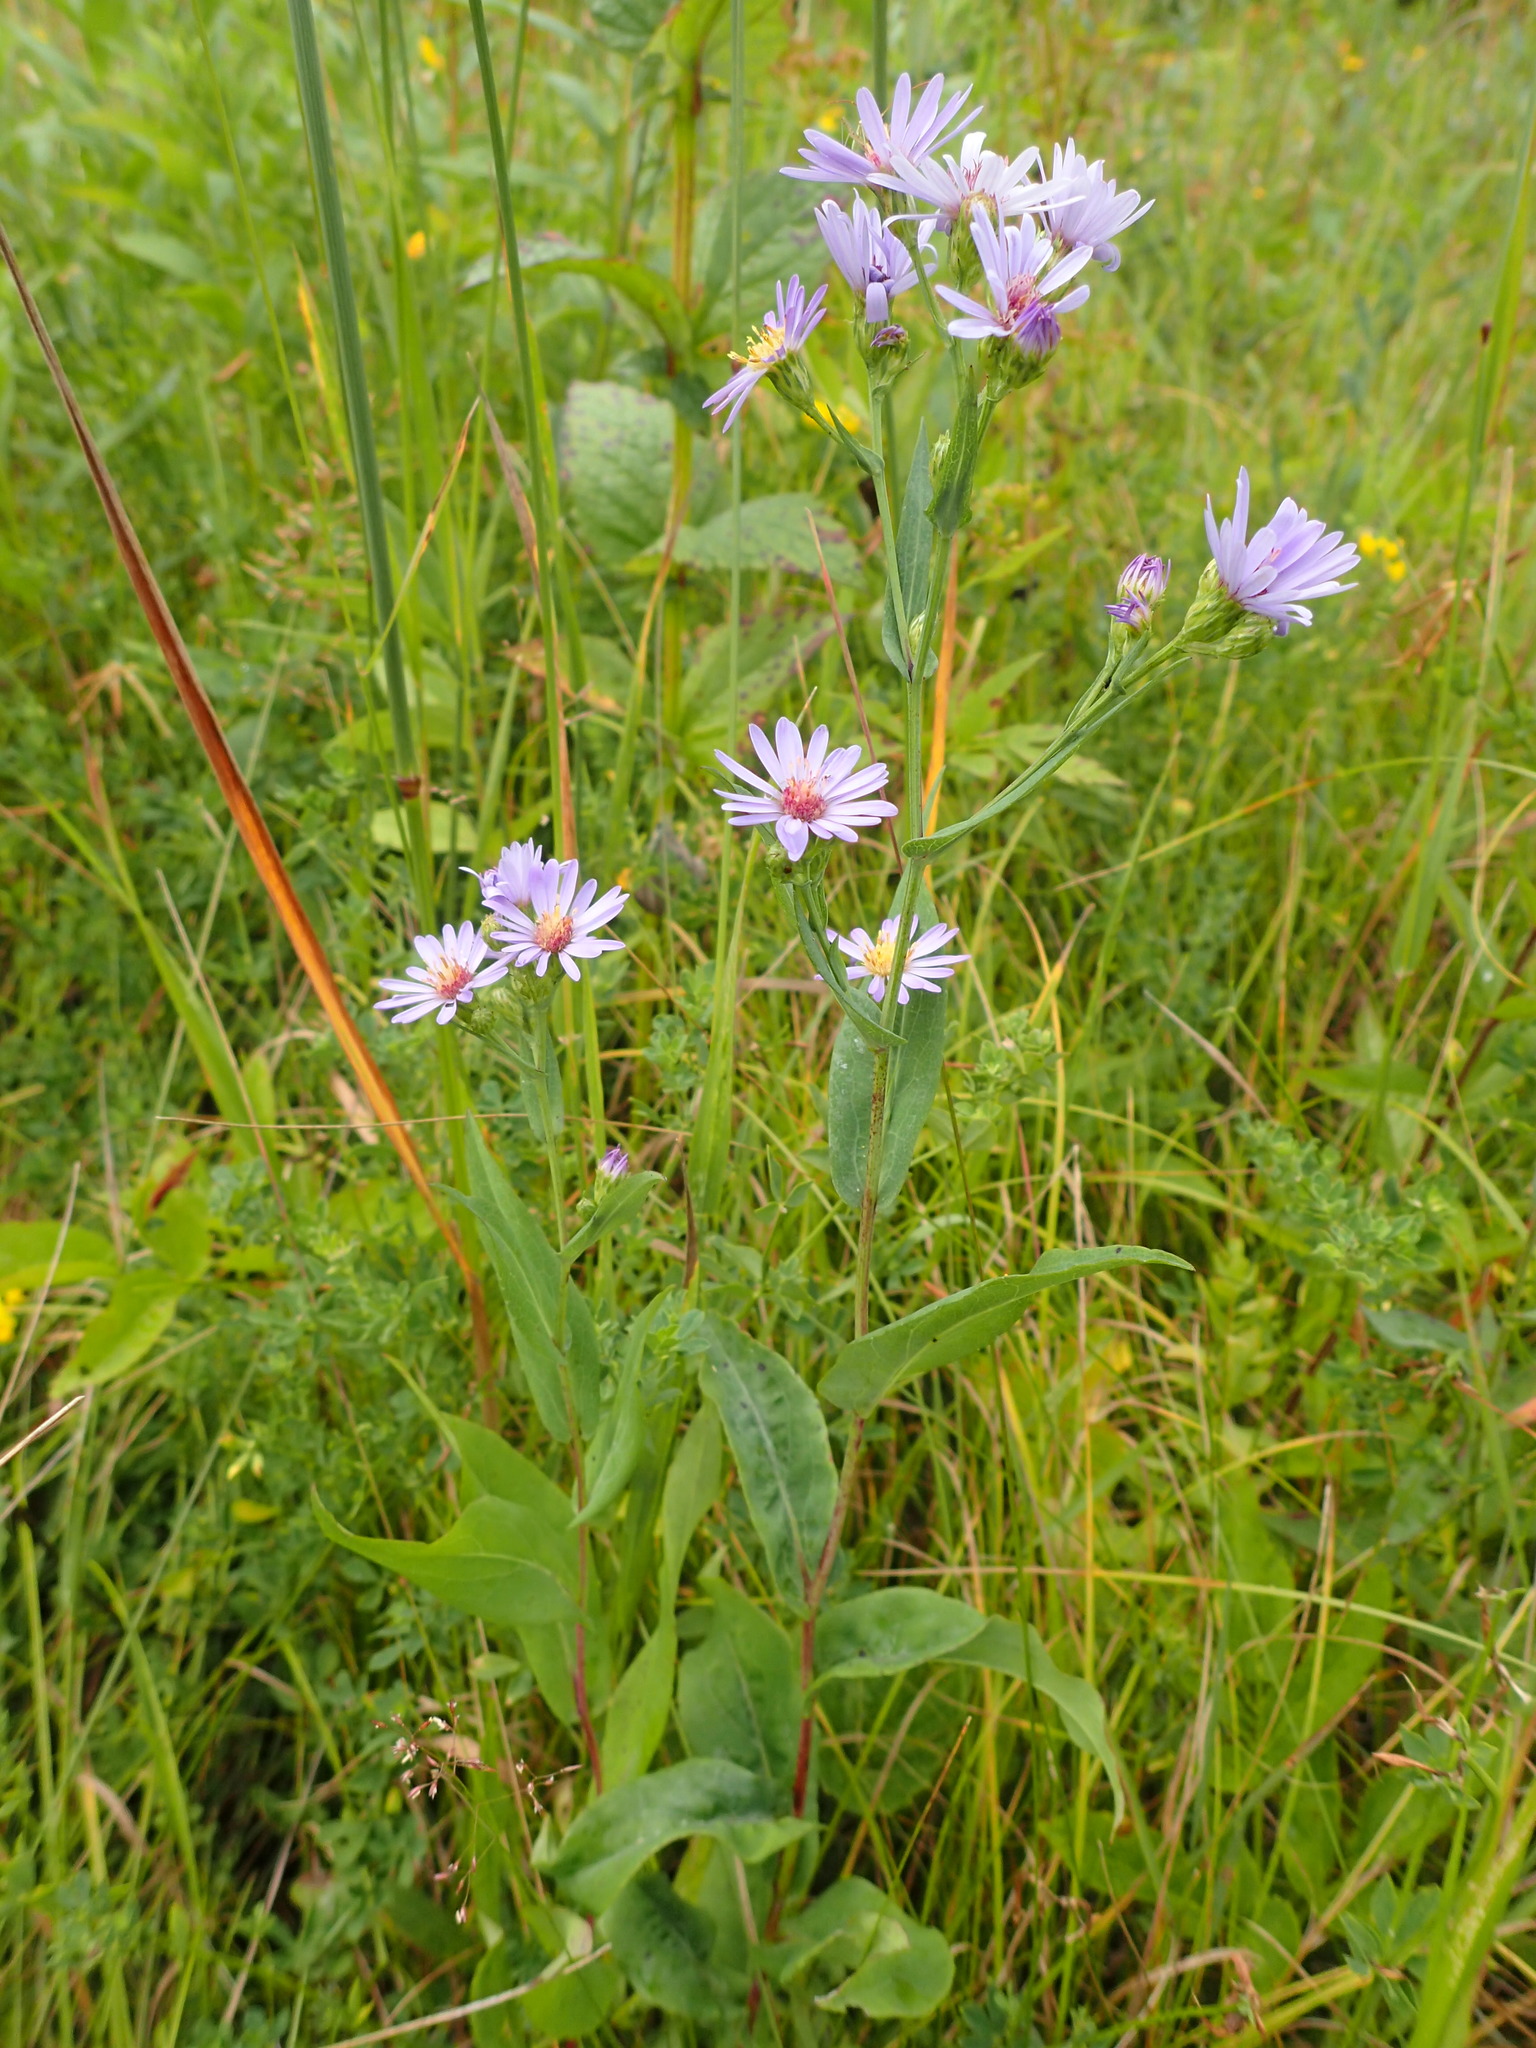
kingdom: Plantae
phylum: Tracheophyta
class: Magnoliopsida
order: Asterales
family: Asteraceae
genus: Symphyotrichum
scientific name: Symphyotrichum laeve
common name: Glaucous aster
